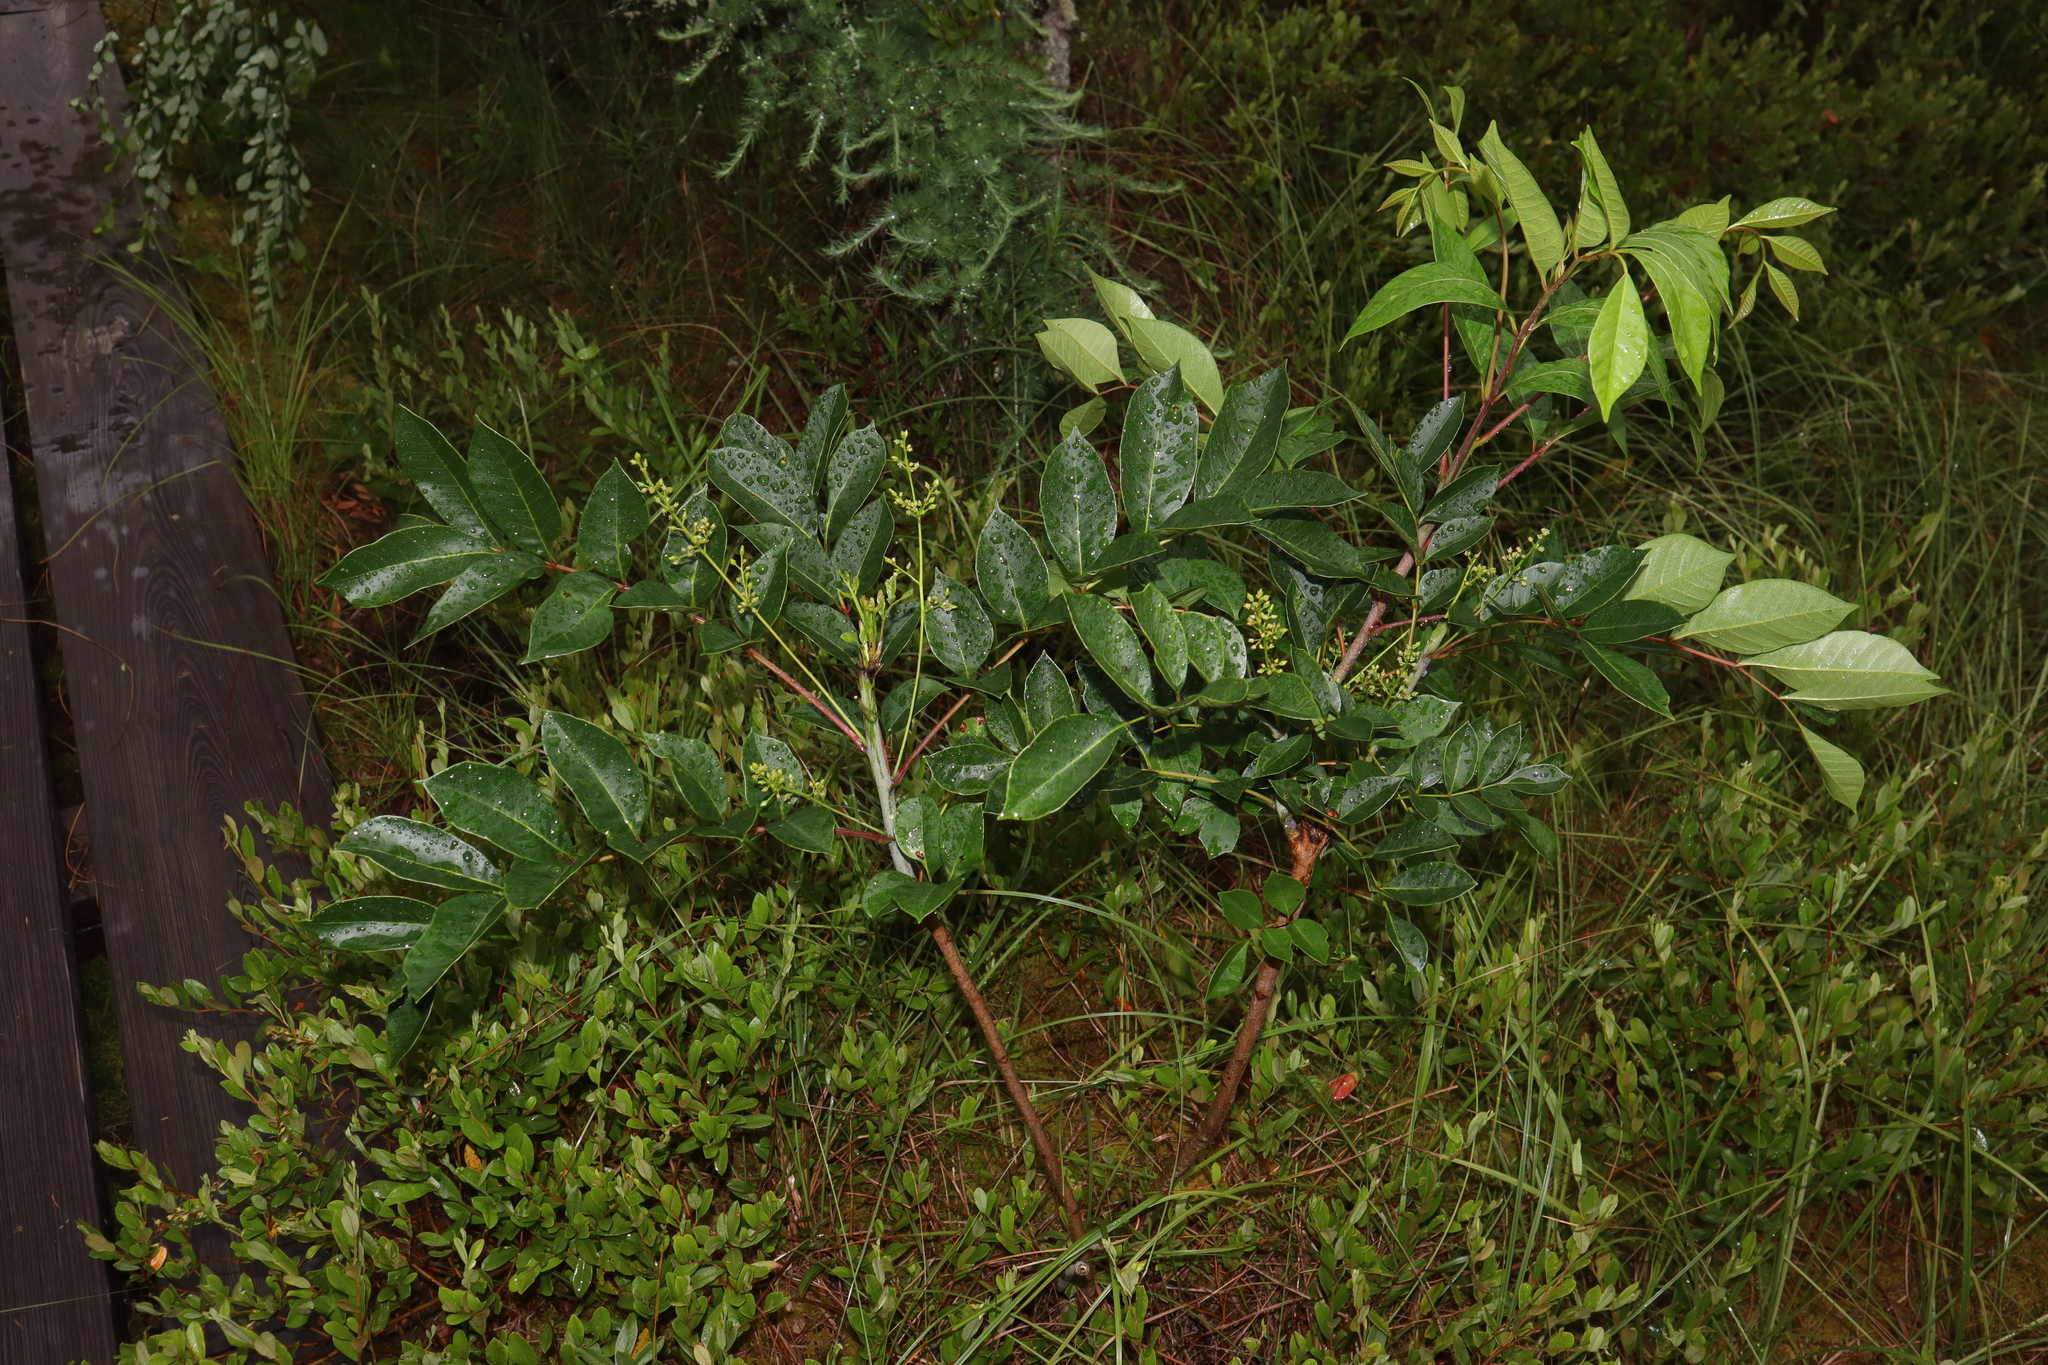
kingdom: Plantae
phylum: Tracheophyta
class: Magnoliopsida
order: Sapindales
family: Anacardiaceae
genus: Toxicodendron
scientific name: Toxicodendron vernix
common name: Poison sumac
